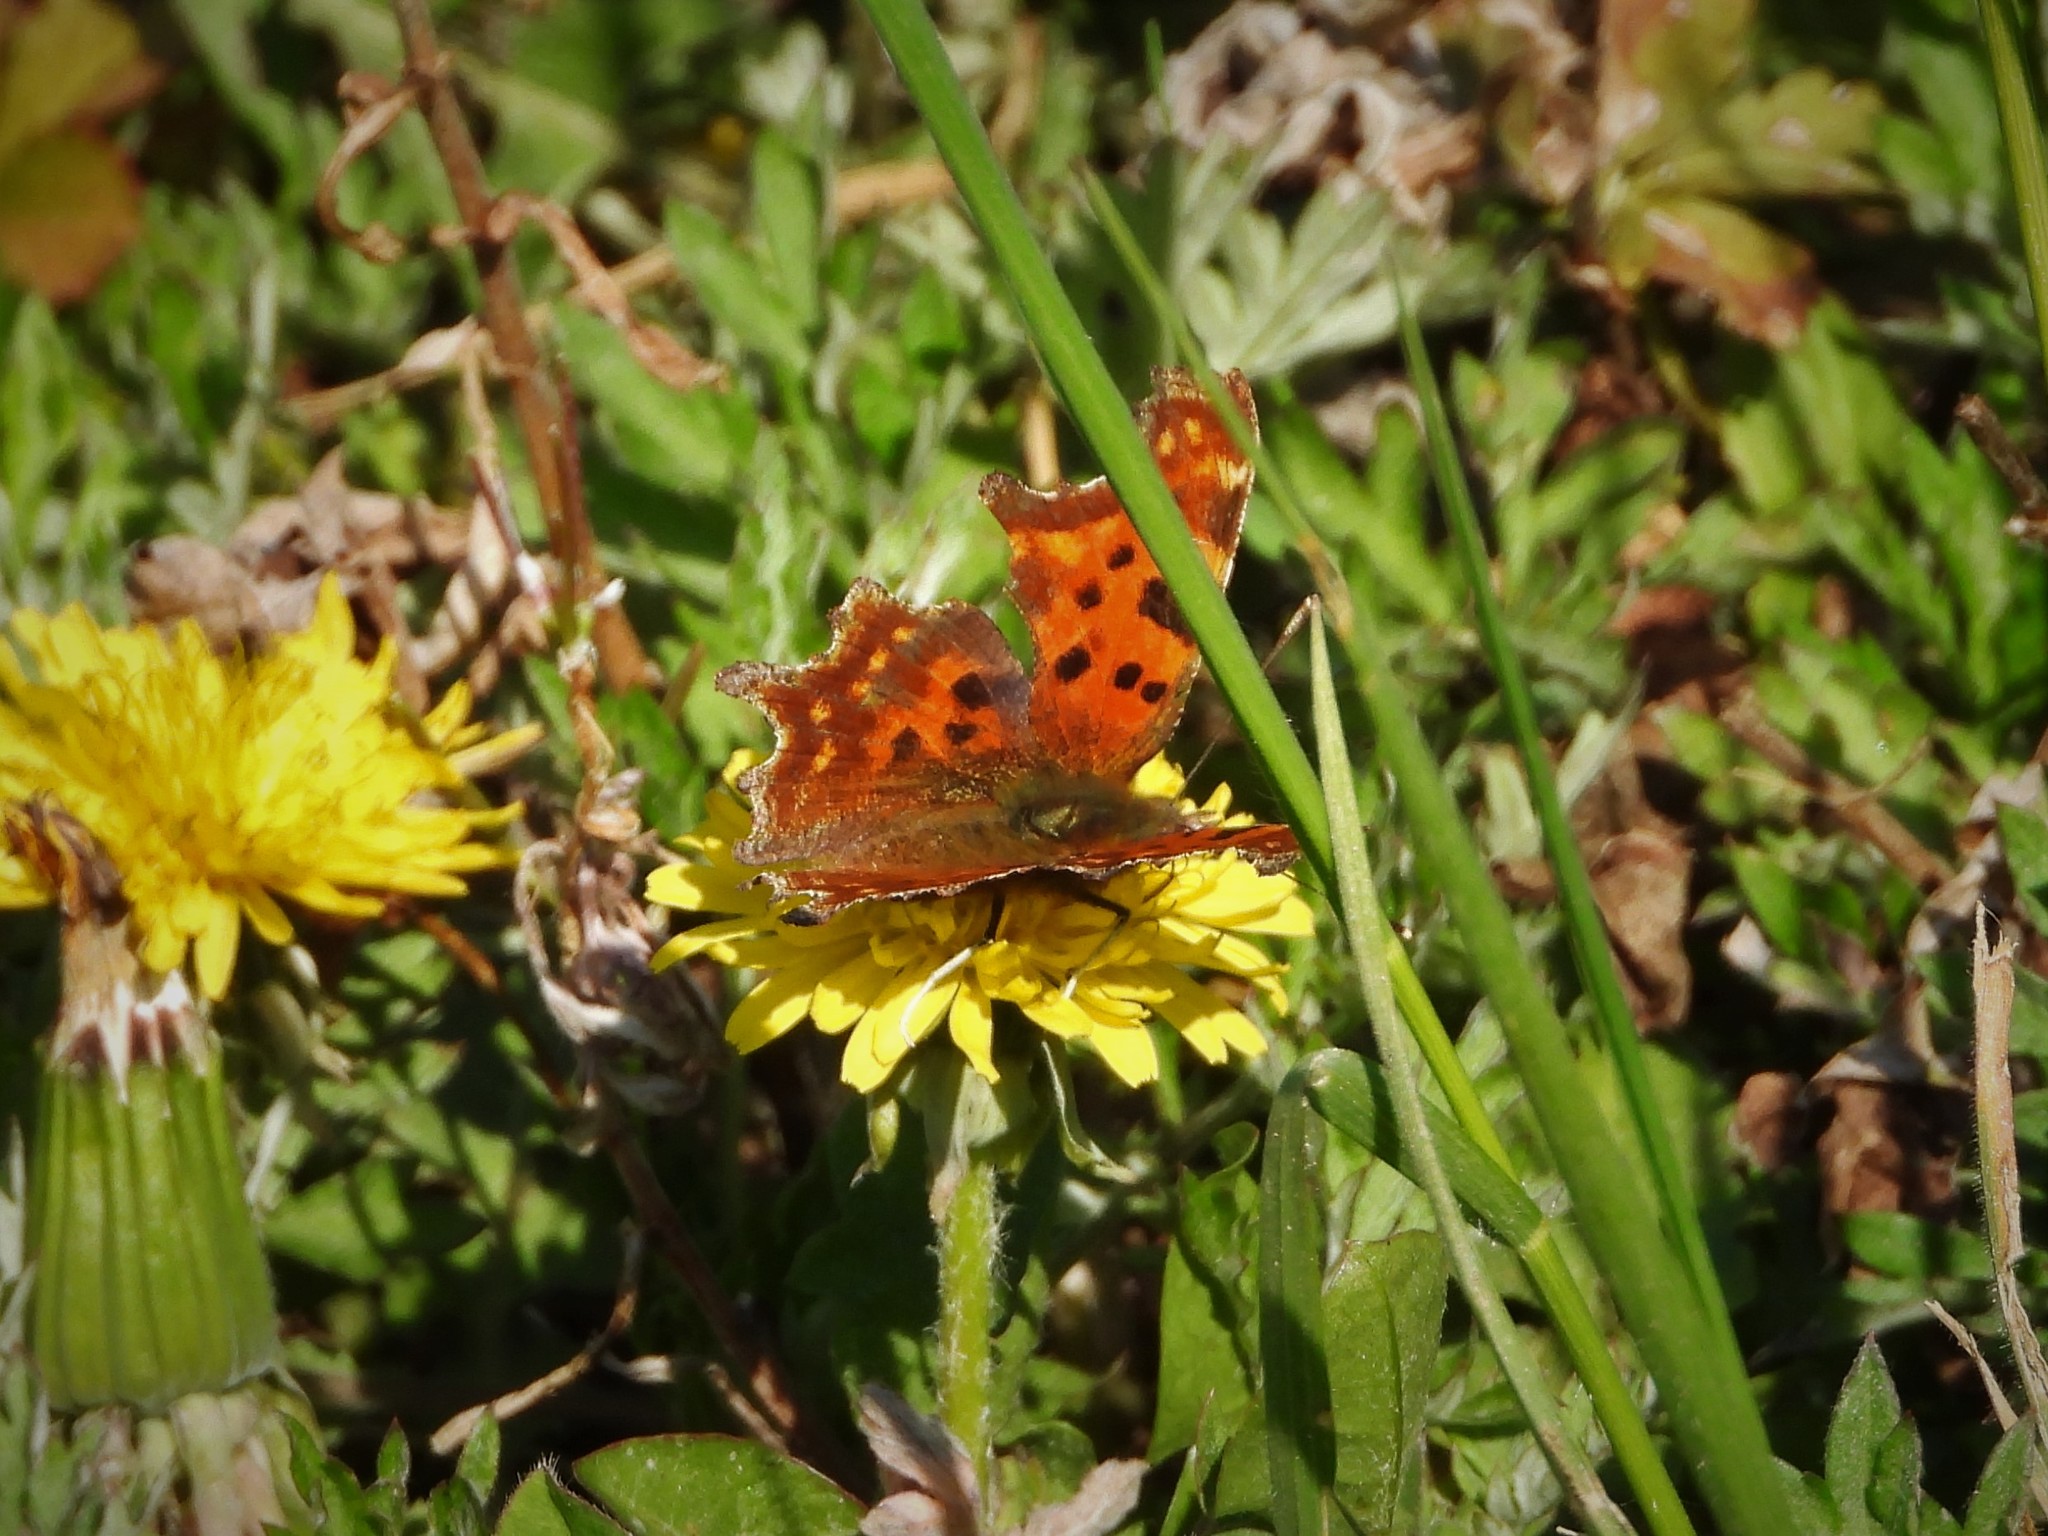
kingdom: Animalia
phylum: Arthropoda
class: Insecta
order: Lepidoptera
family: Nymphalidae
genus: Polygonia
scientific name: Polygonia c-album
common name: Comma
